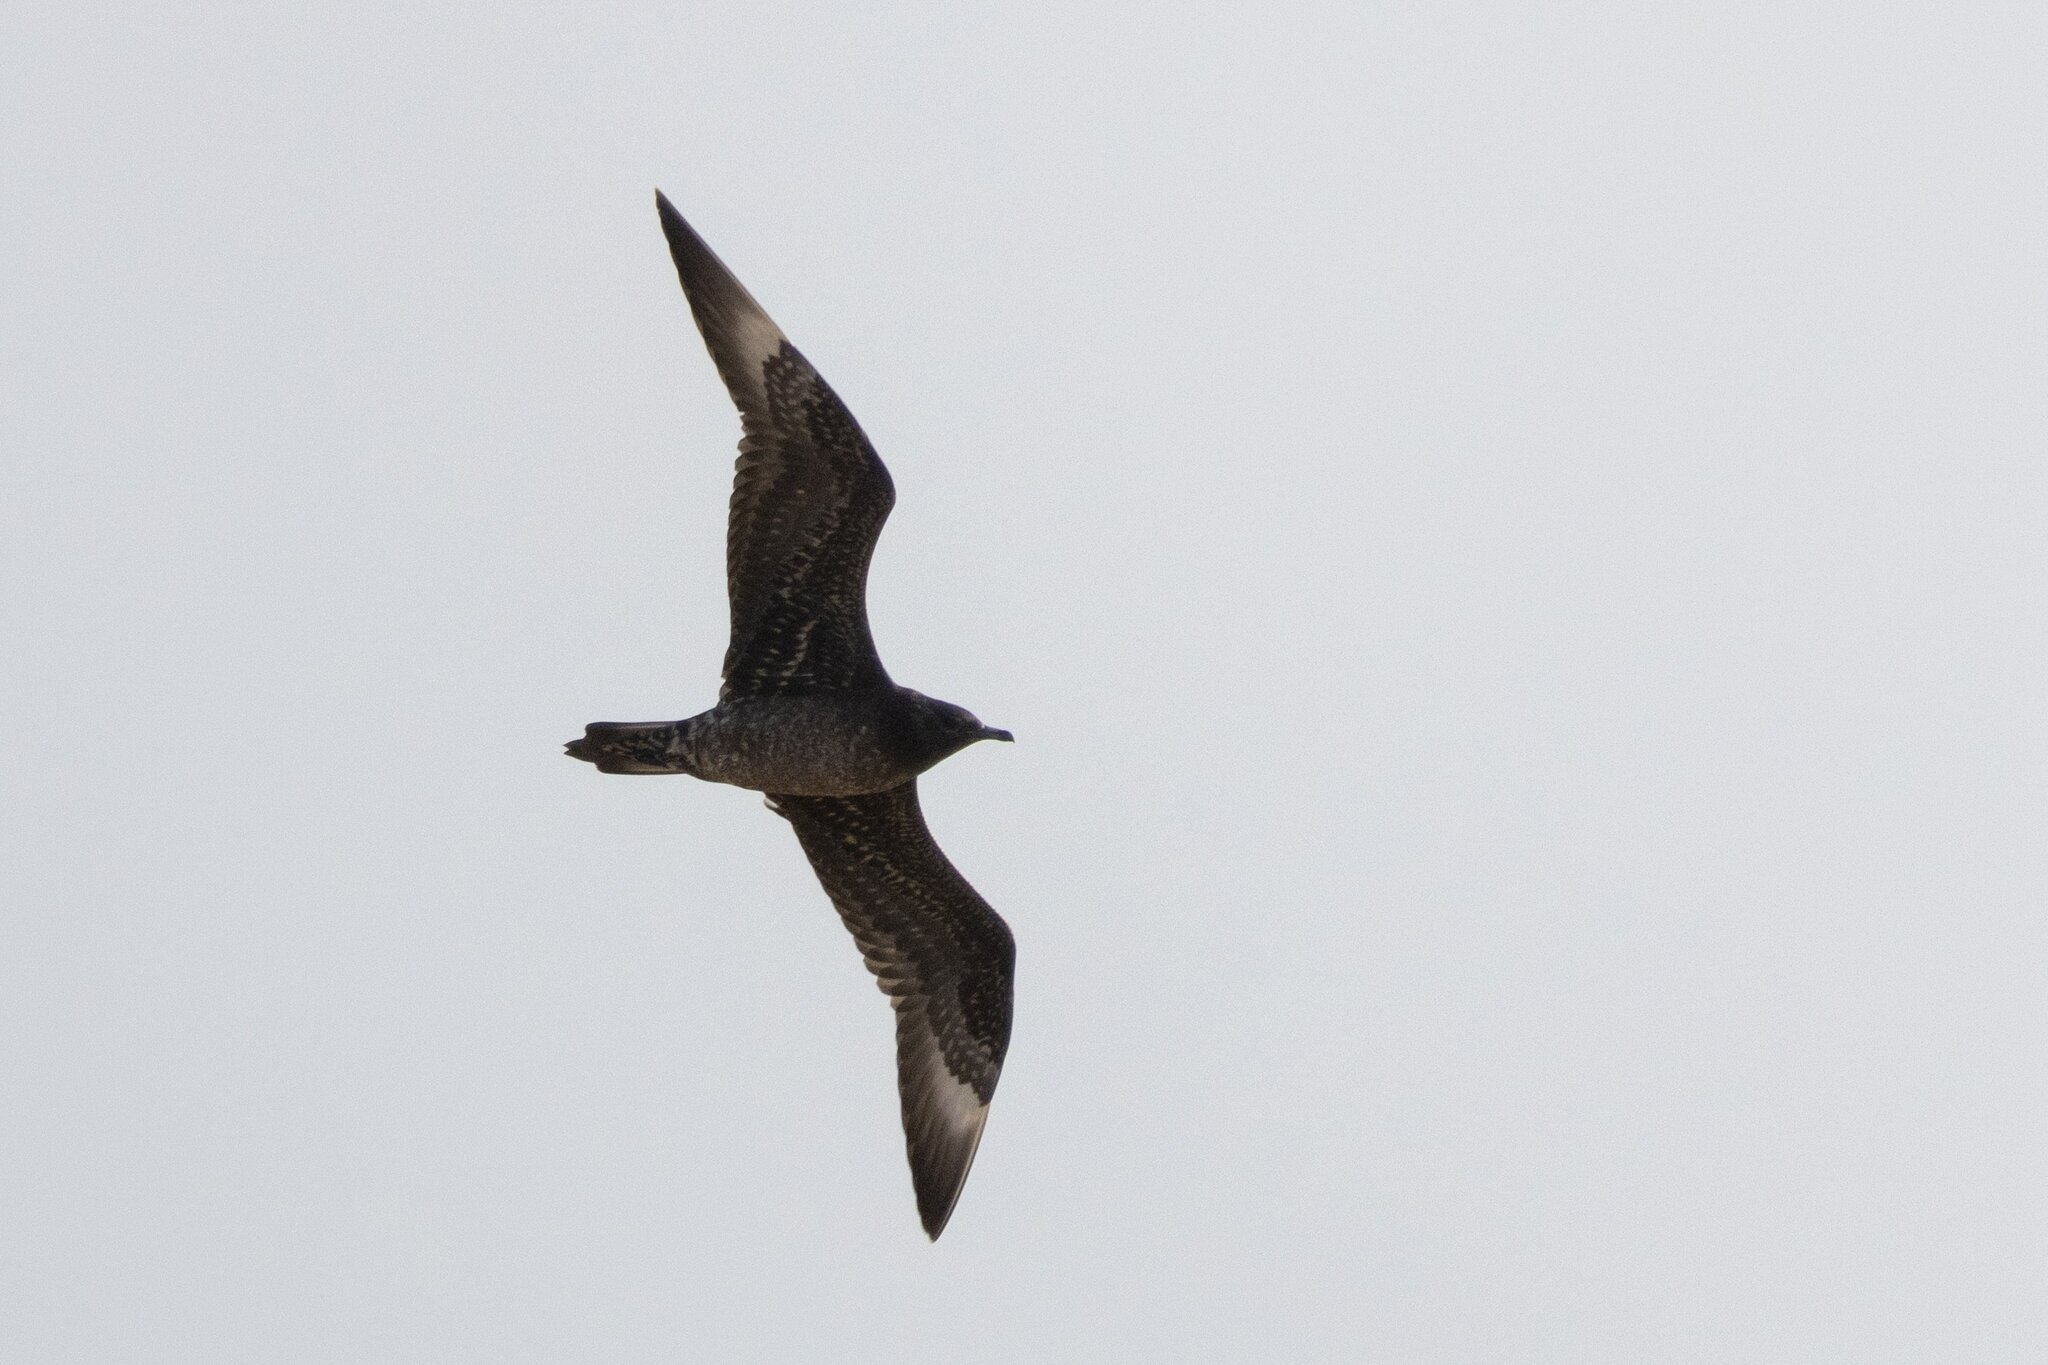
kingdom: Animalia
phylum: Chordata
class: Aves
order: Charadriiformes
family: Stercorariidae
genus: Stercorarius
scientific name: Stercorarius parasiticus
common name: Parasitic jaeger
